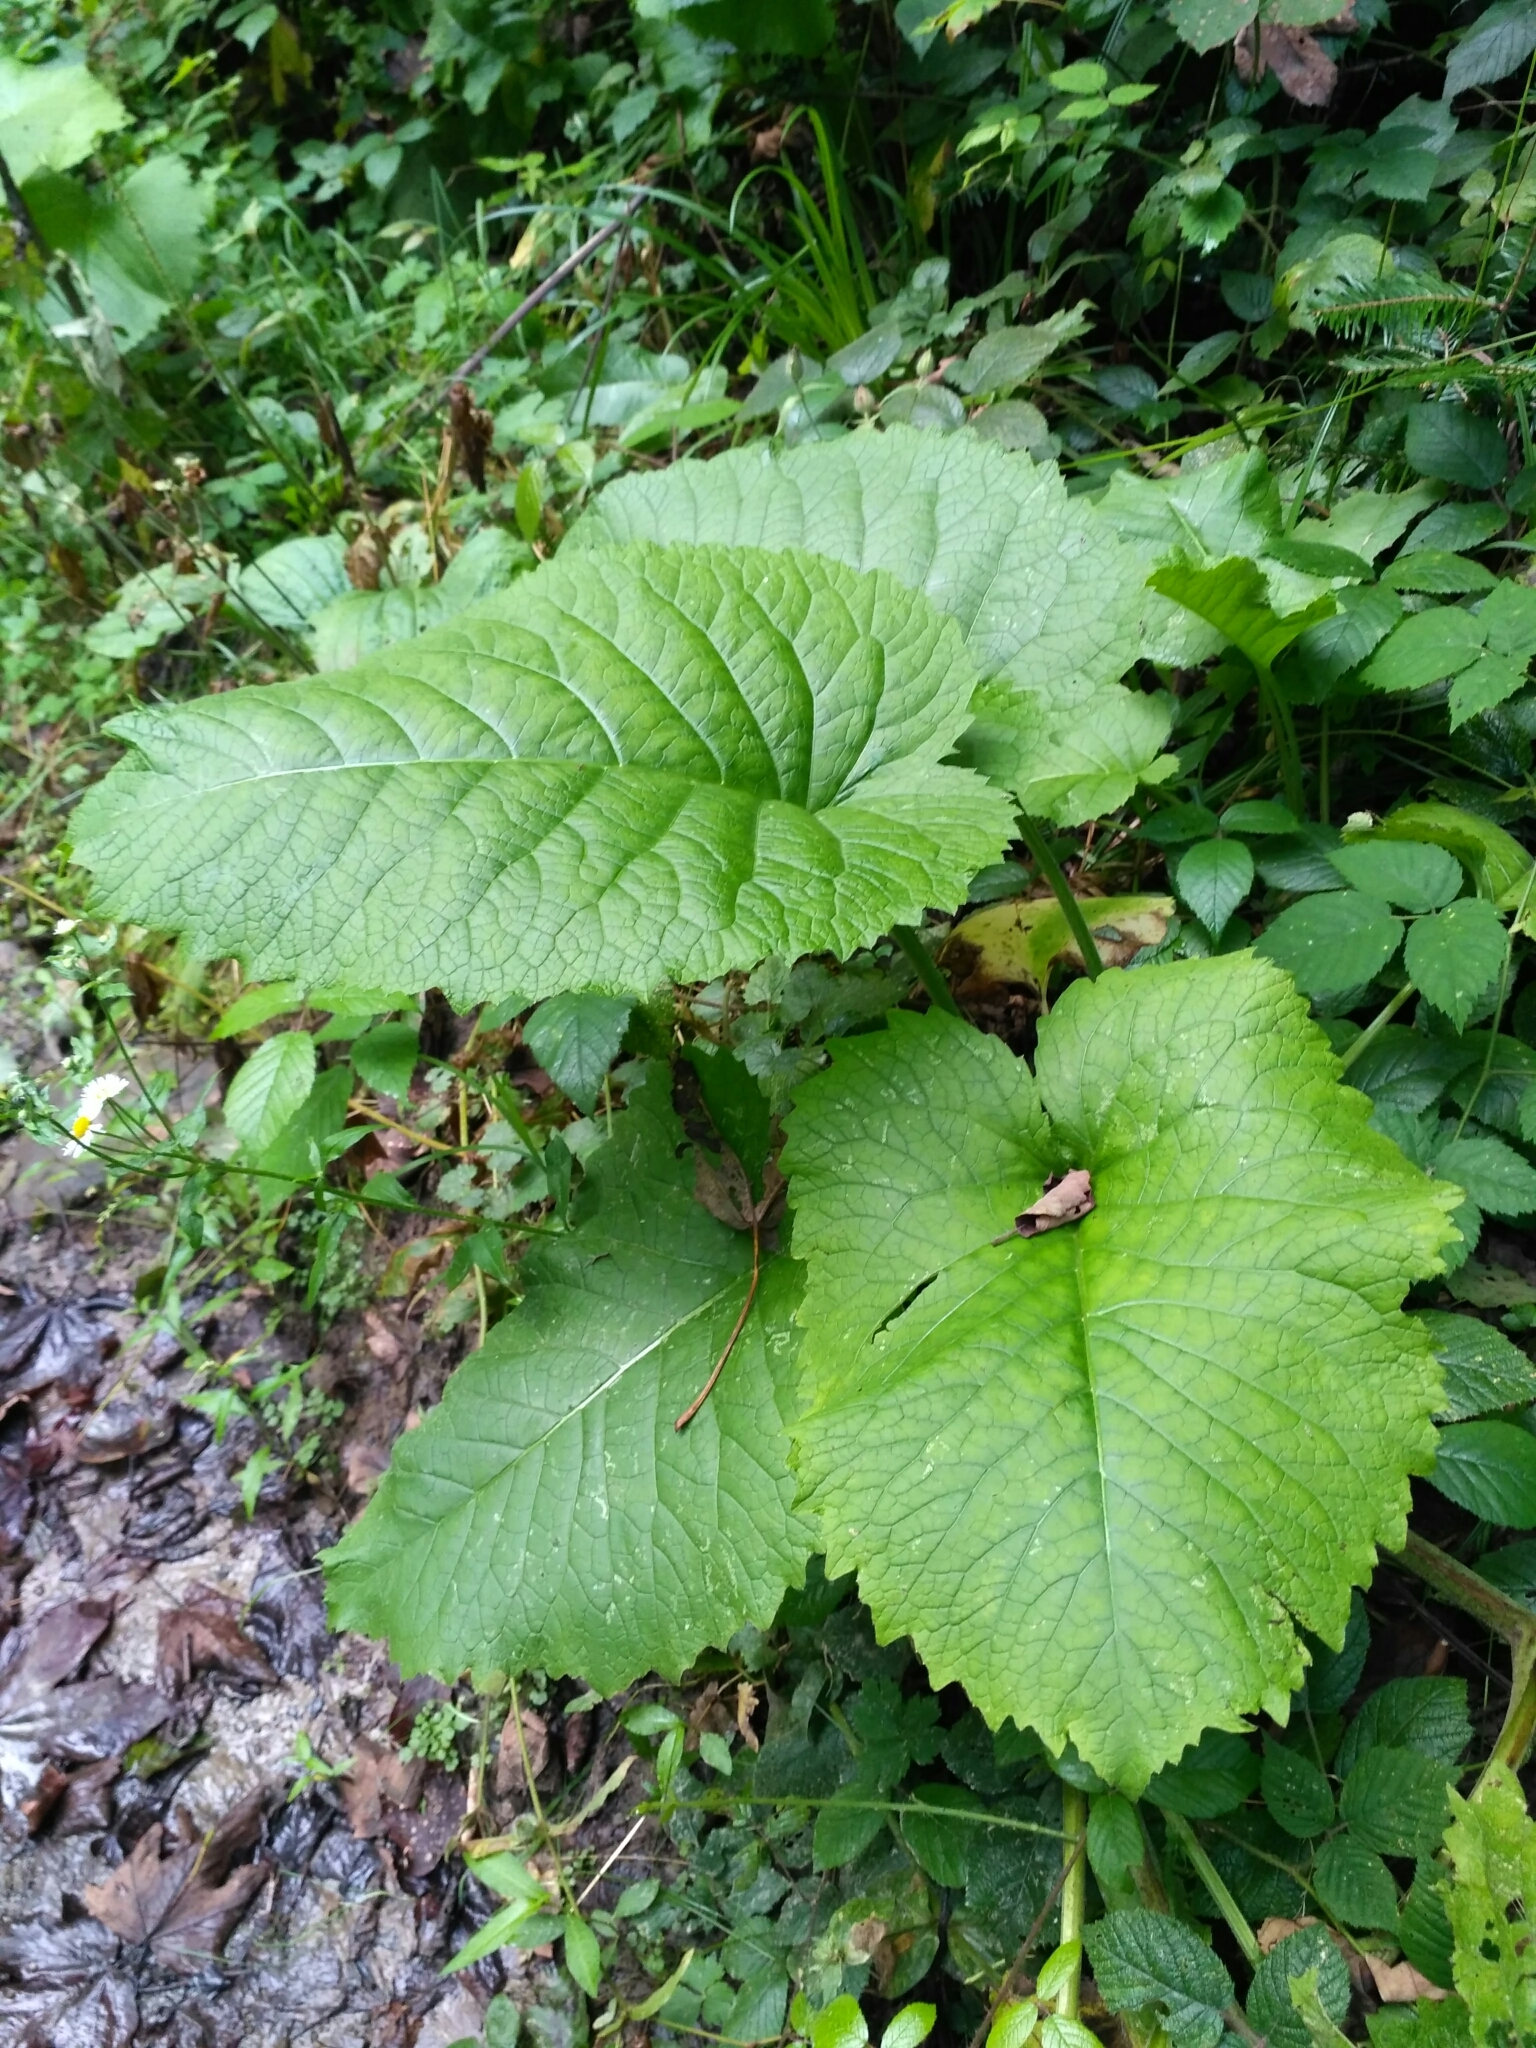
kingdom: Plantae
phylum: Tracheophyta
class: Magnoliopsida
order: Asterales
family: Asteraceae
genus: Telekia
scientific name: Telekia speciosa
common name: Yellow oxeye
